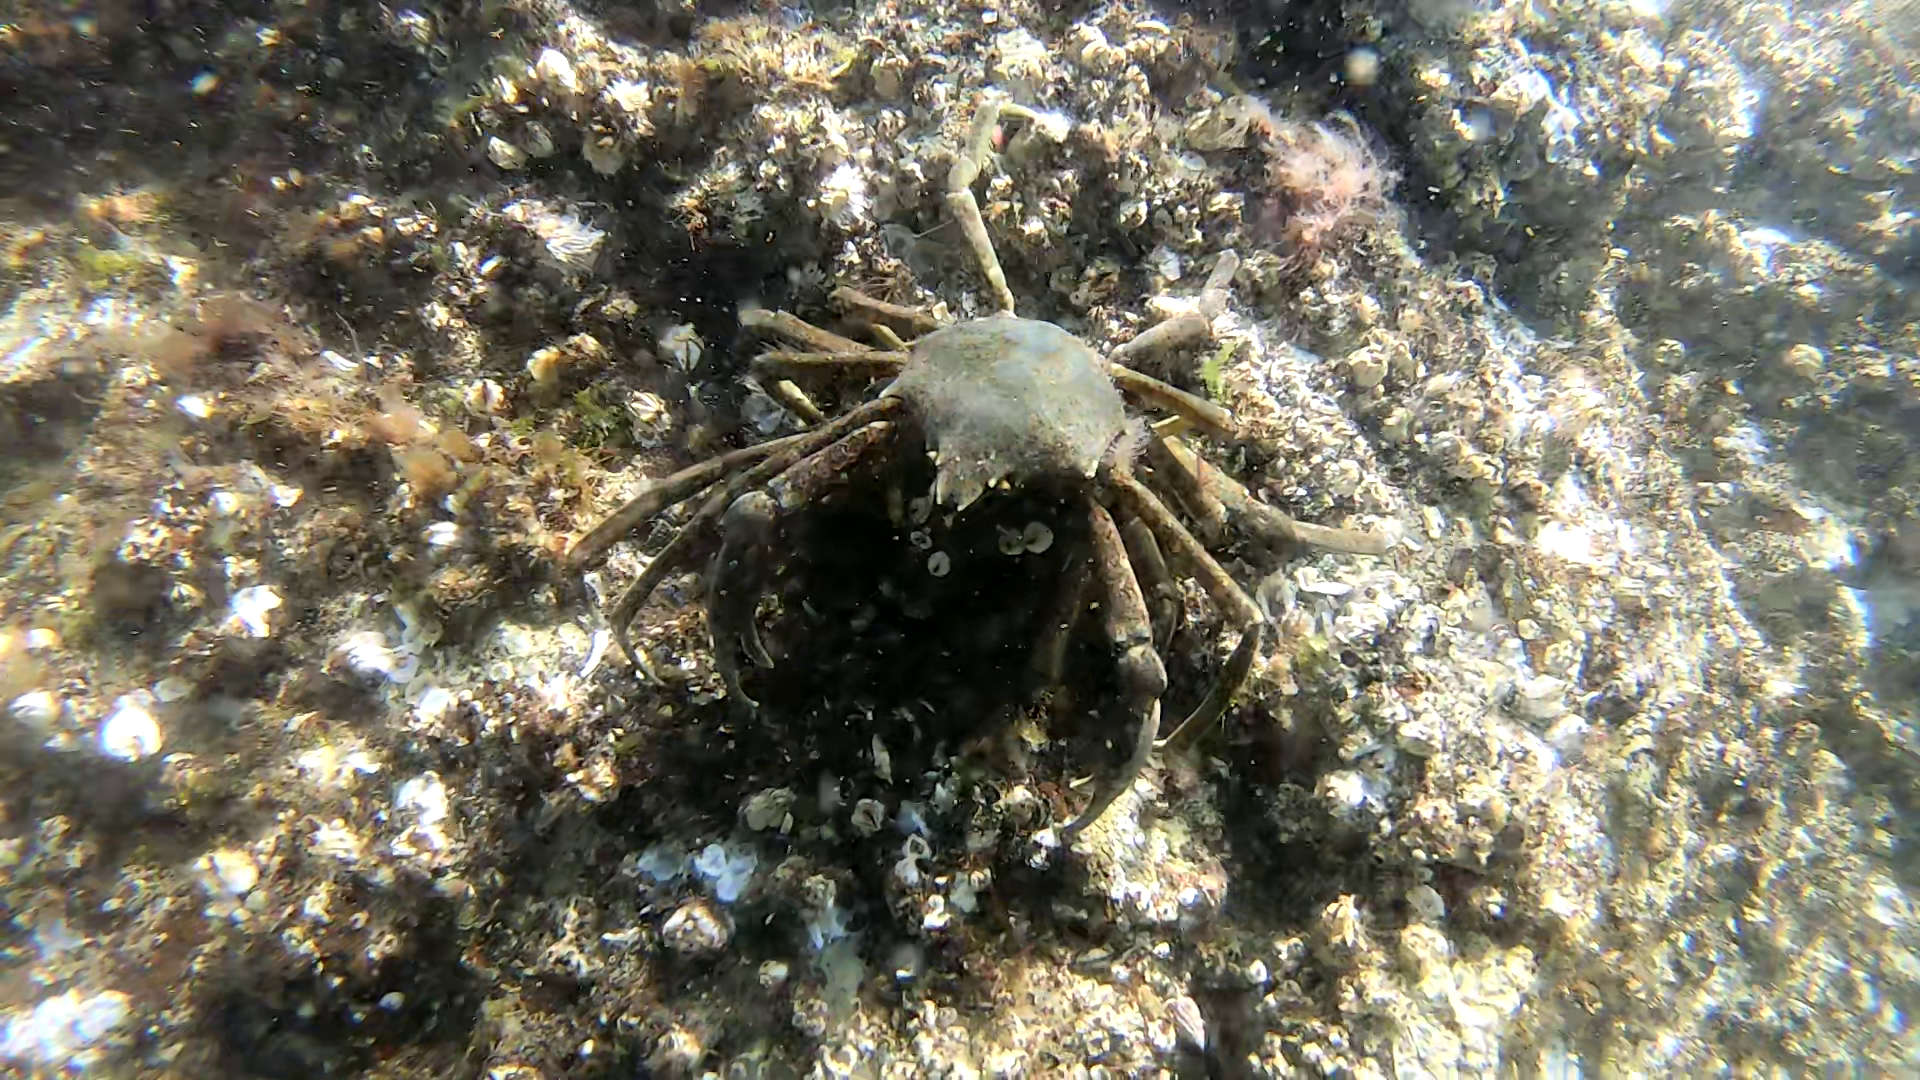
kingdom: Animalia
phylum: Arthropoda
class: Malacostraca
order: Decapoda
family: Epialtidae
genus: Pugettia
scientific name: Pugettia producta
